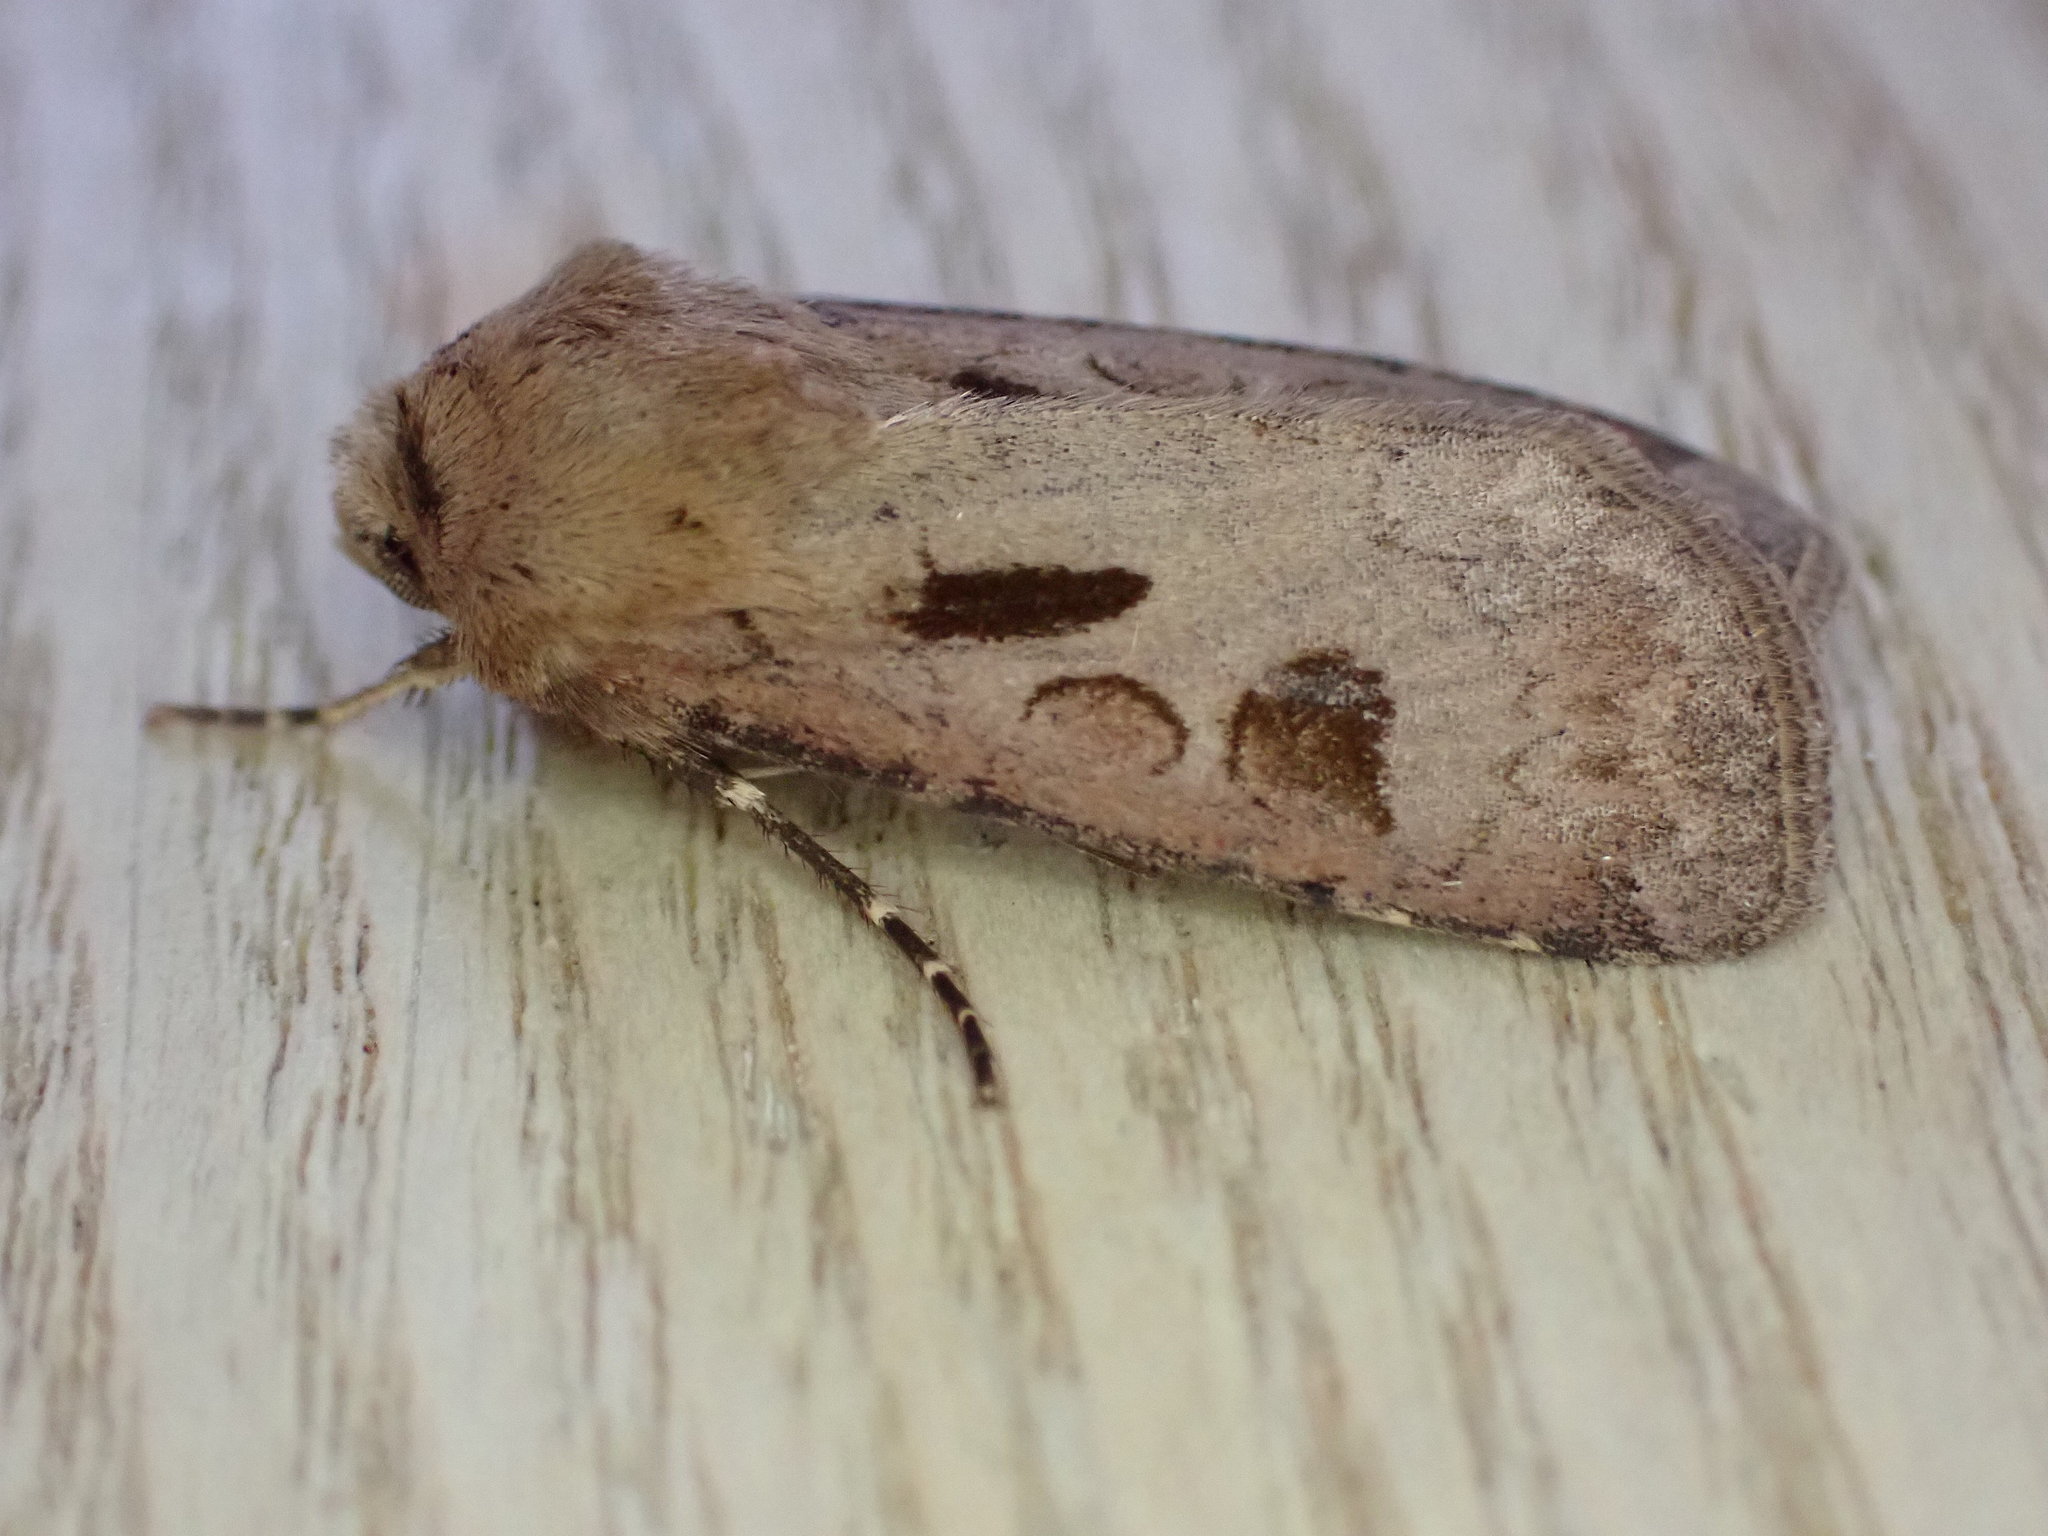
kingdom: Animalia
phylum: Arthropoda
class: Insecta
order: Lepidoptera
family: Noctuidae
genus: Agrotis
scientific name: Agrotis exclamationis
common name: Heart and dart
